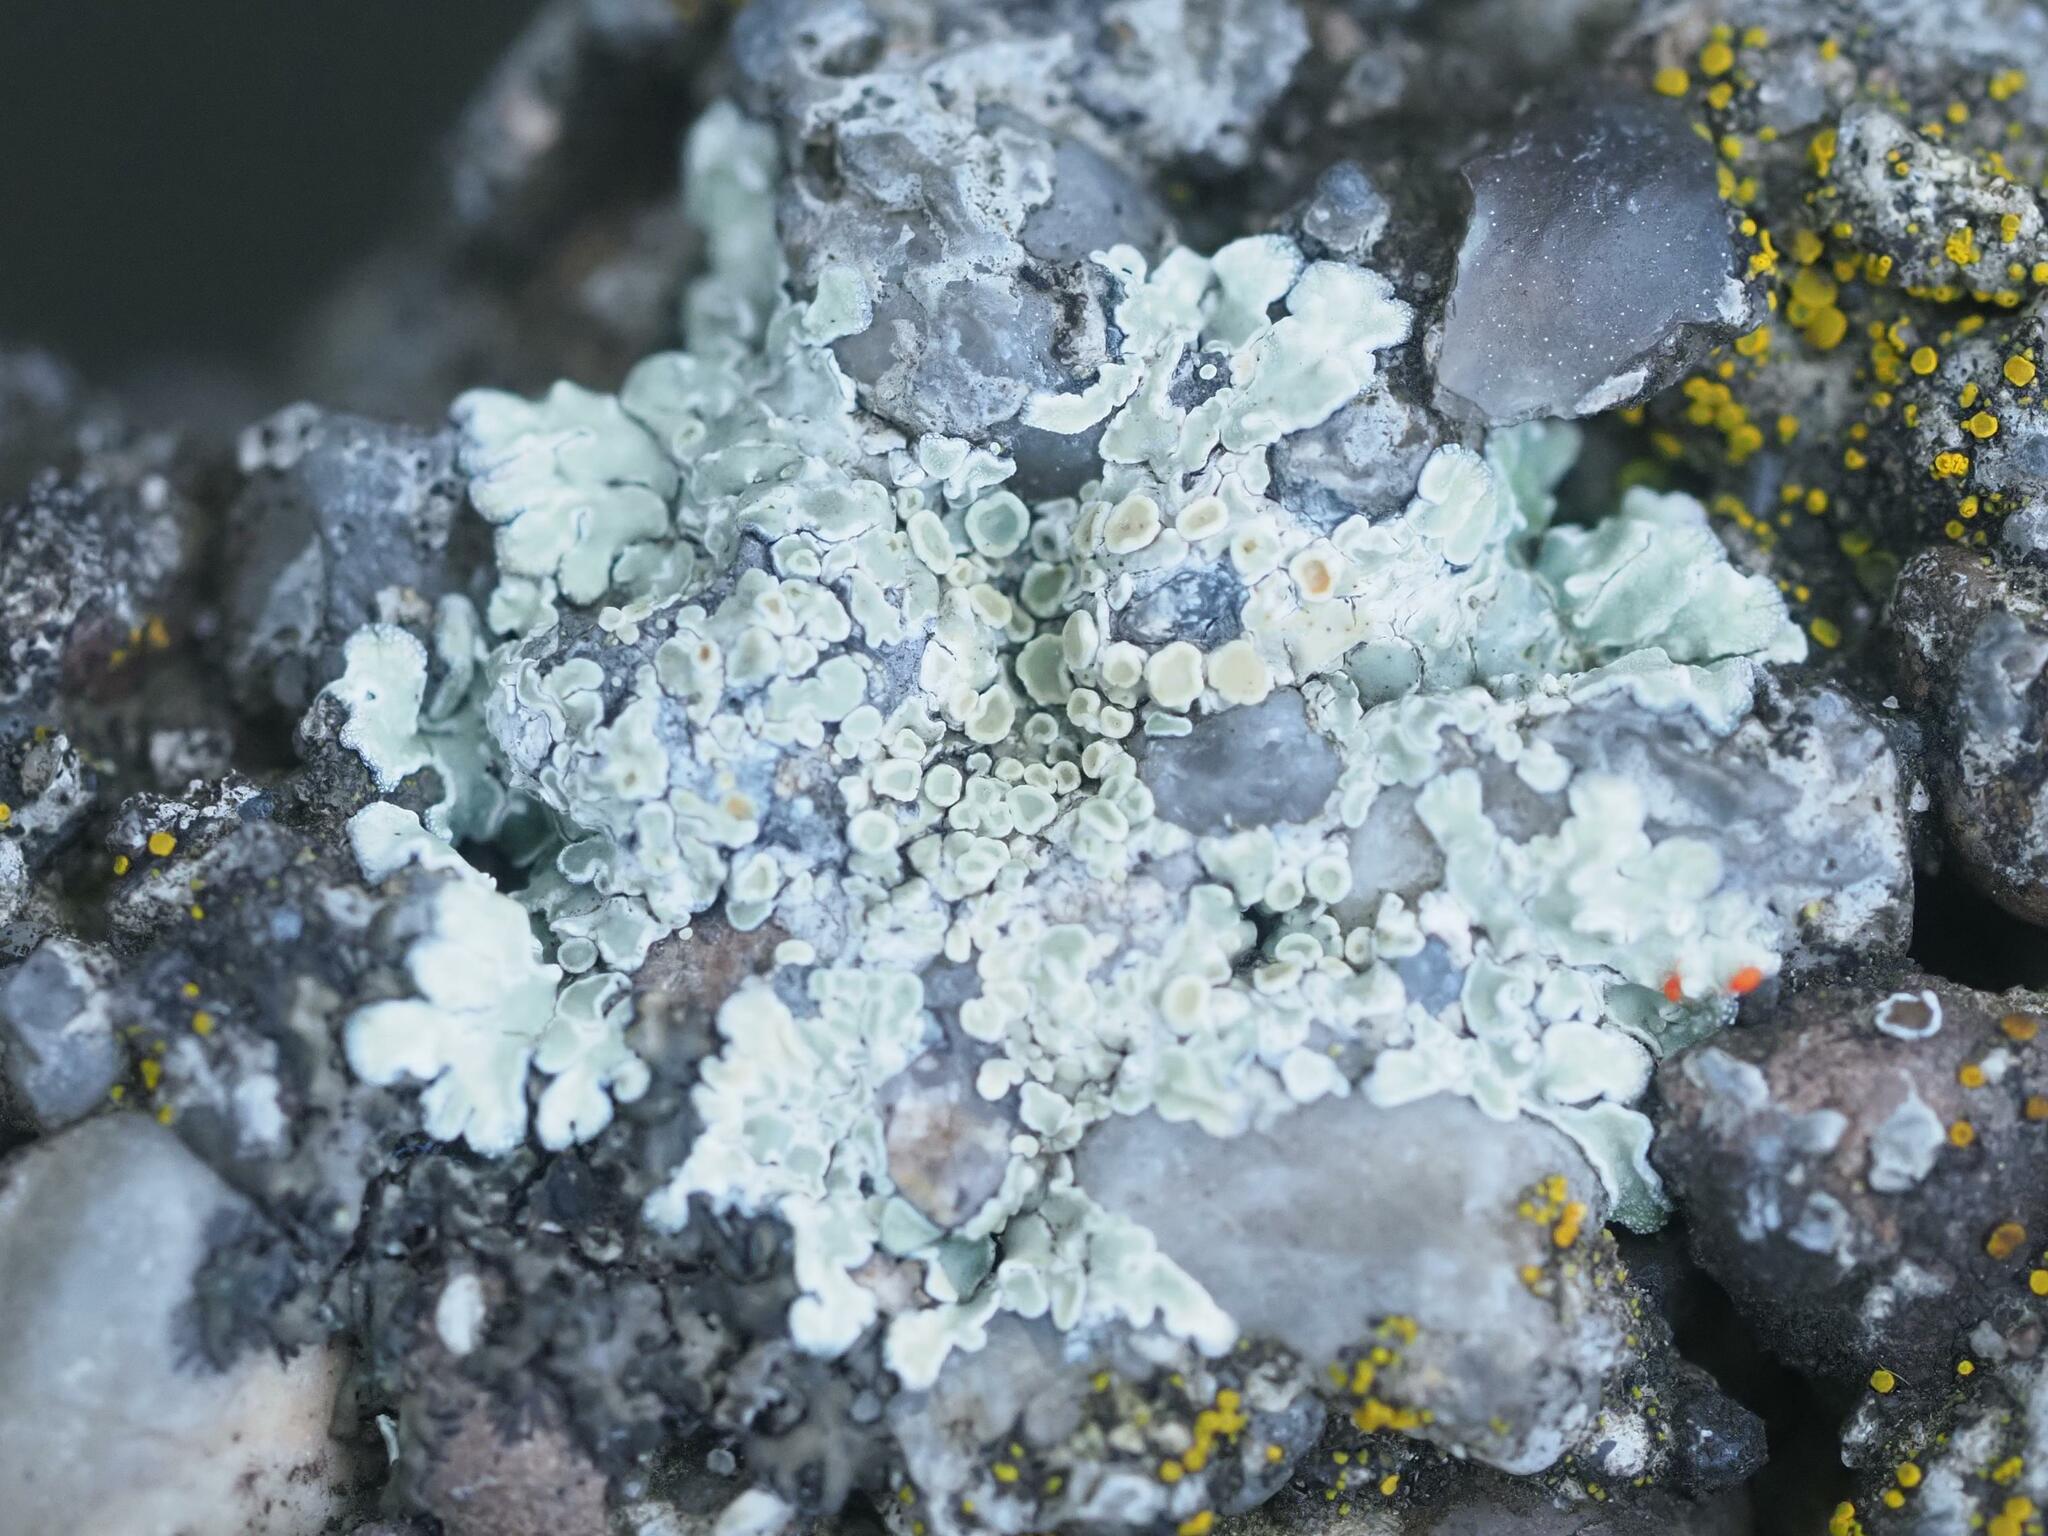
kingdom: Fungi
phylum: Ascomycota
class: Lecanoromycetes
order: Lecanorales
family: Lecanoraceae
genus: Protoparmeliopsis
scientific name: Protoparmeliopsis muralis
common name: Stonewall rim lichen
